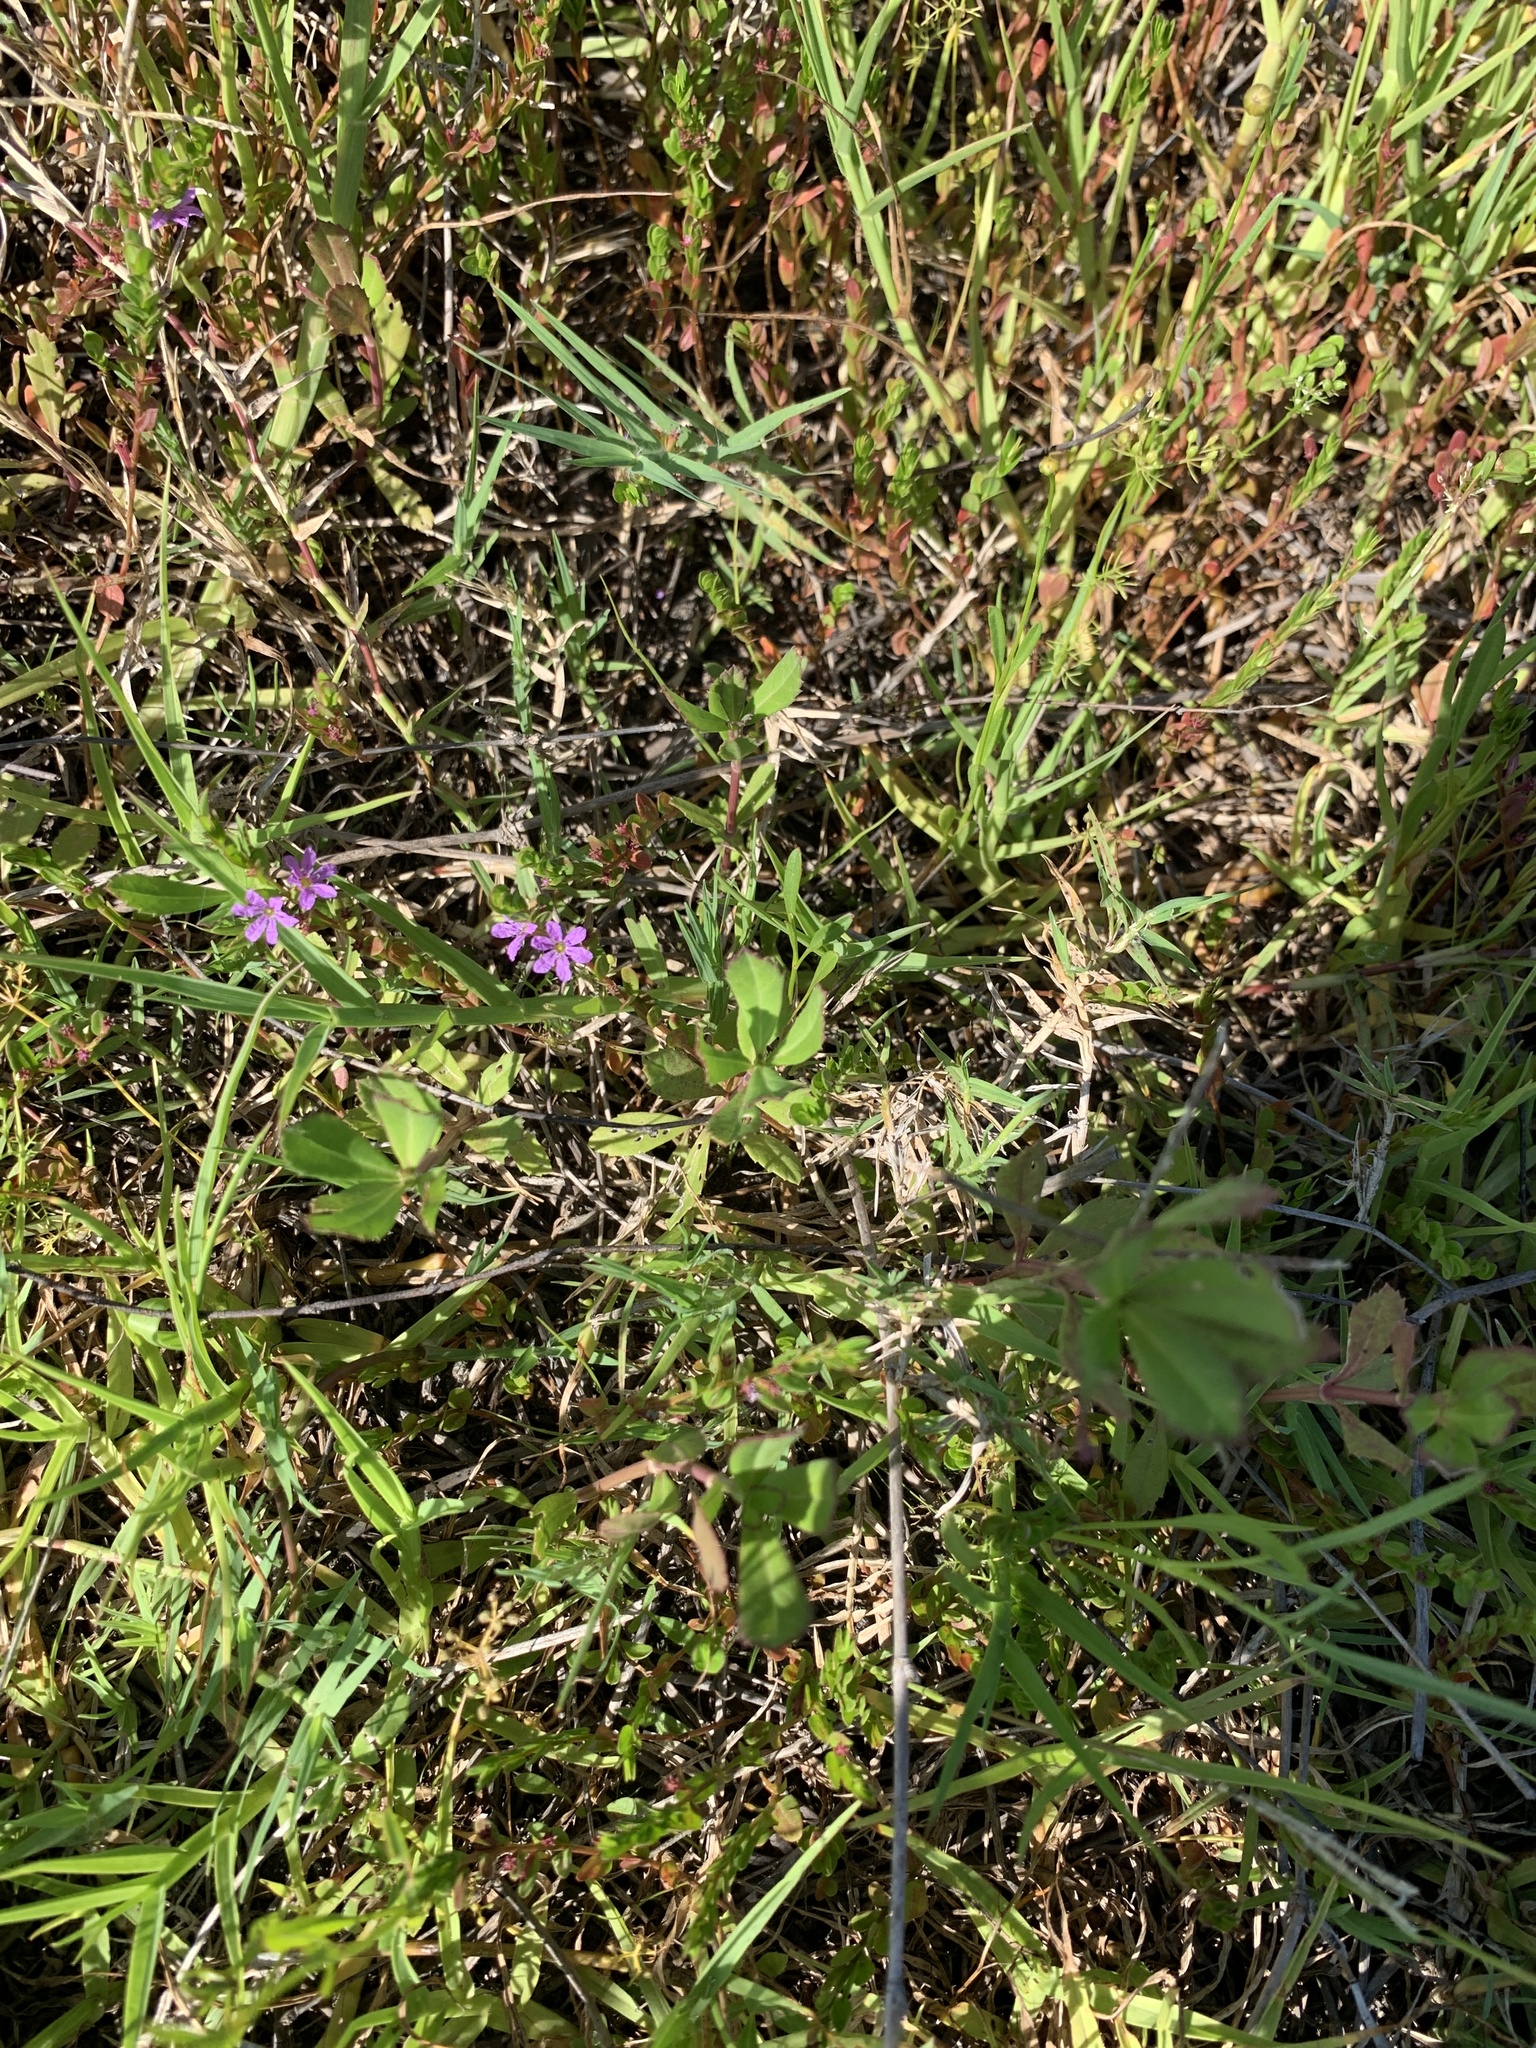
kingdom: Plantae
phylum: Tracheophyta
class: Magnoliopsida
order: Myrtales
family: Lythraceae
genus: Lythrum
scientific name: Lythrum flagellare
